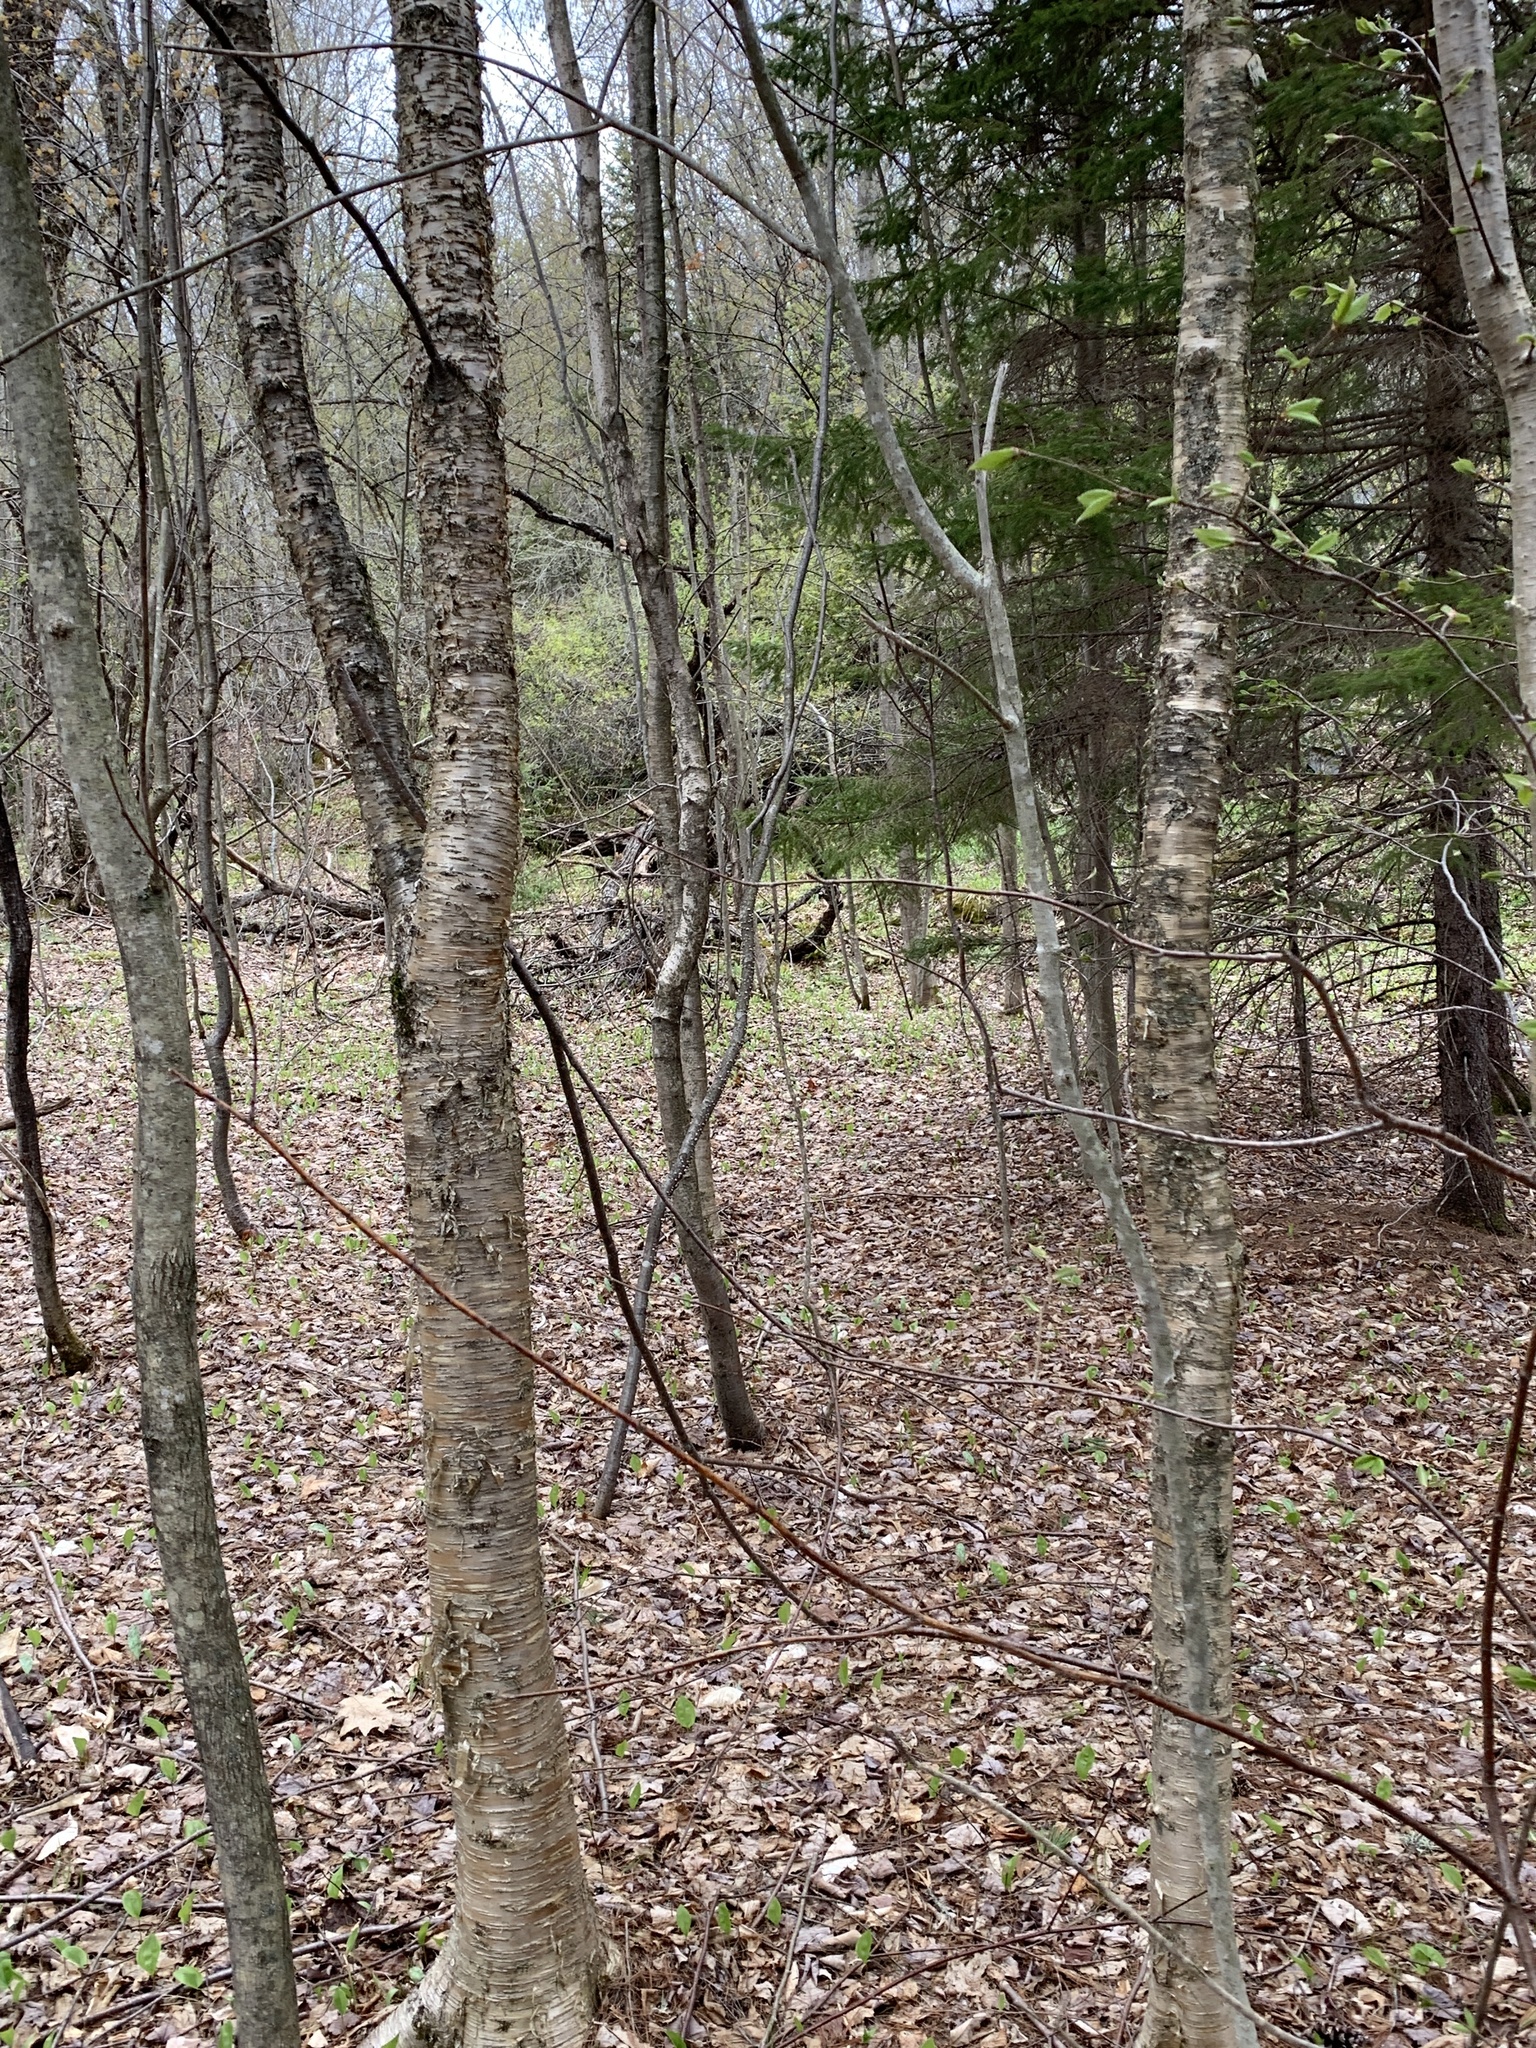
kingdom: Plantae
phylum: Tracheophyta
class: Magnoliopsida
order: Fagales
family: Betulaceae
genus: Betula
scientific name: Betula alleghaniensis
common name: Yellow birch
